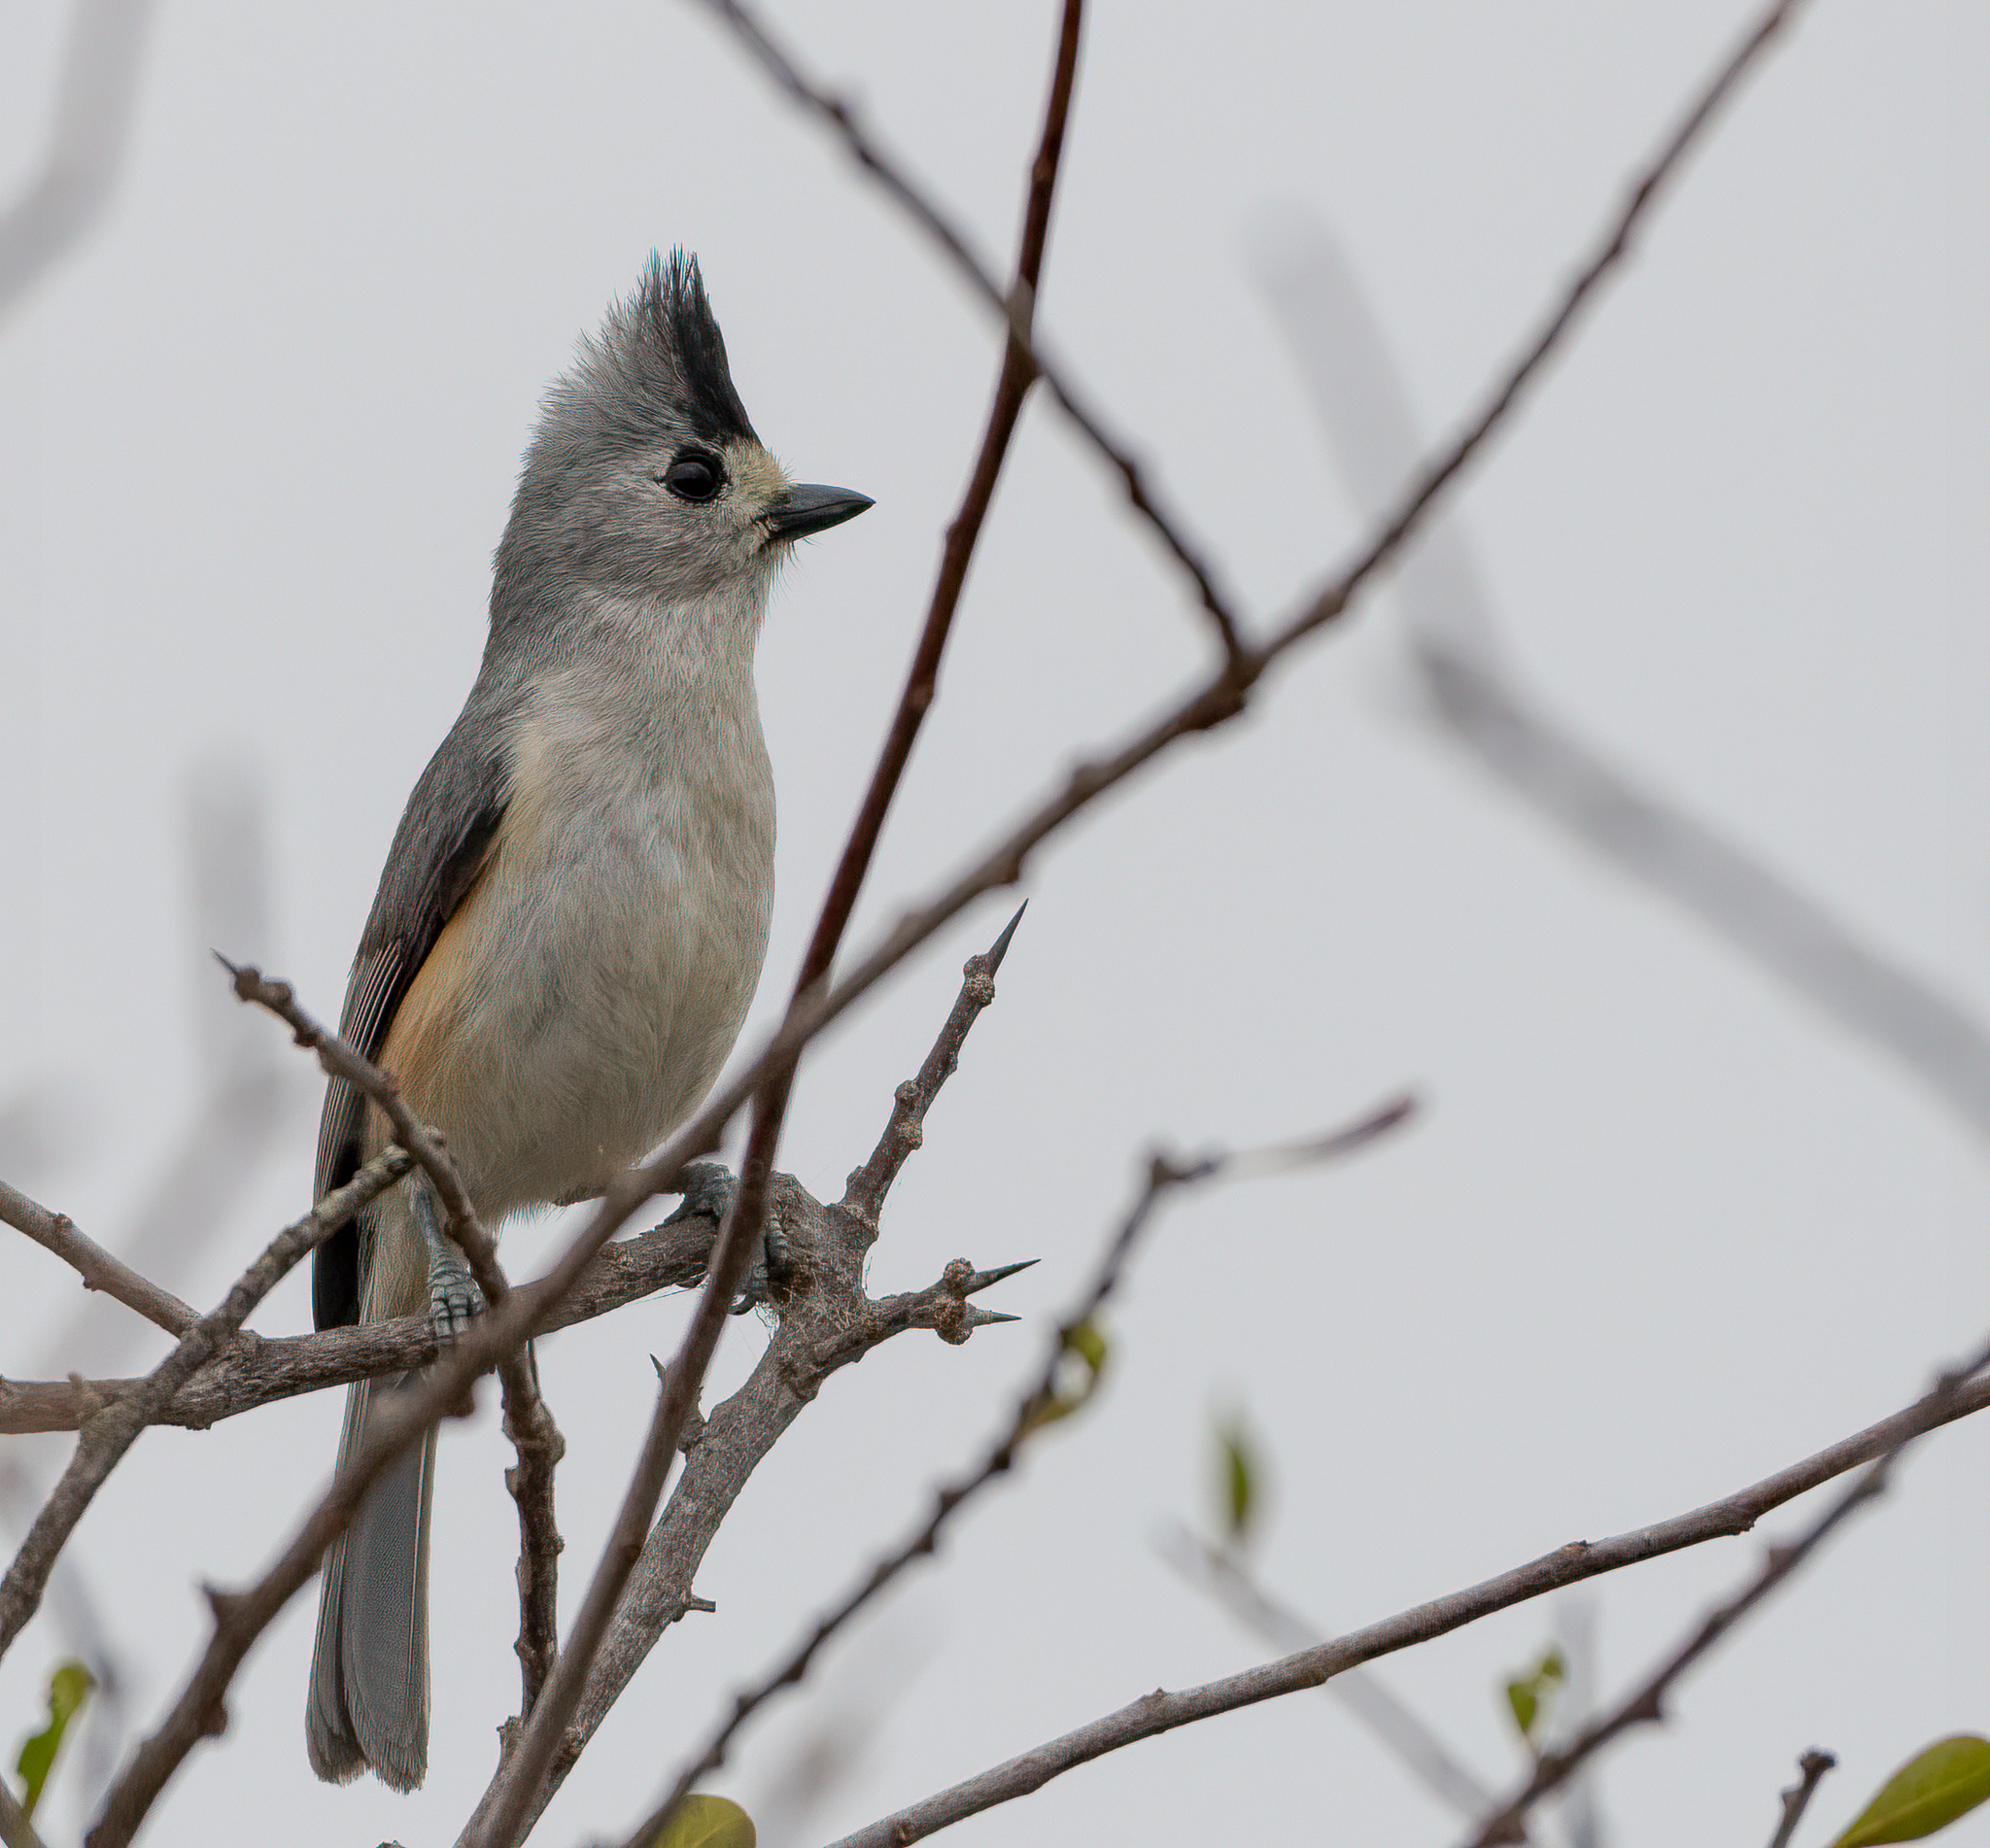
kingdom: Animalia
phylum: Chordata
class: Aves
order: Passeriformes
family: Paridae
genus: Baeolophus
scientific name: Baeolophus atricristatus
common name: Black-crested titmouse
